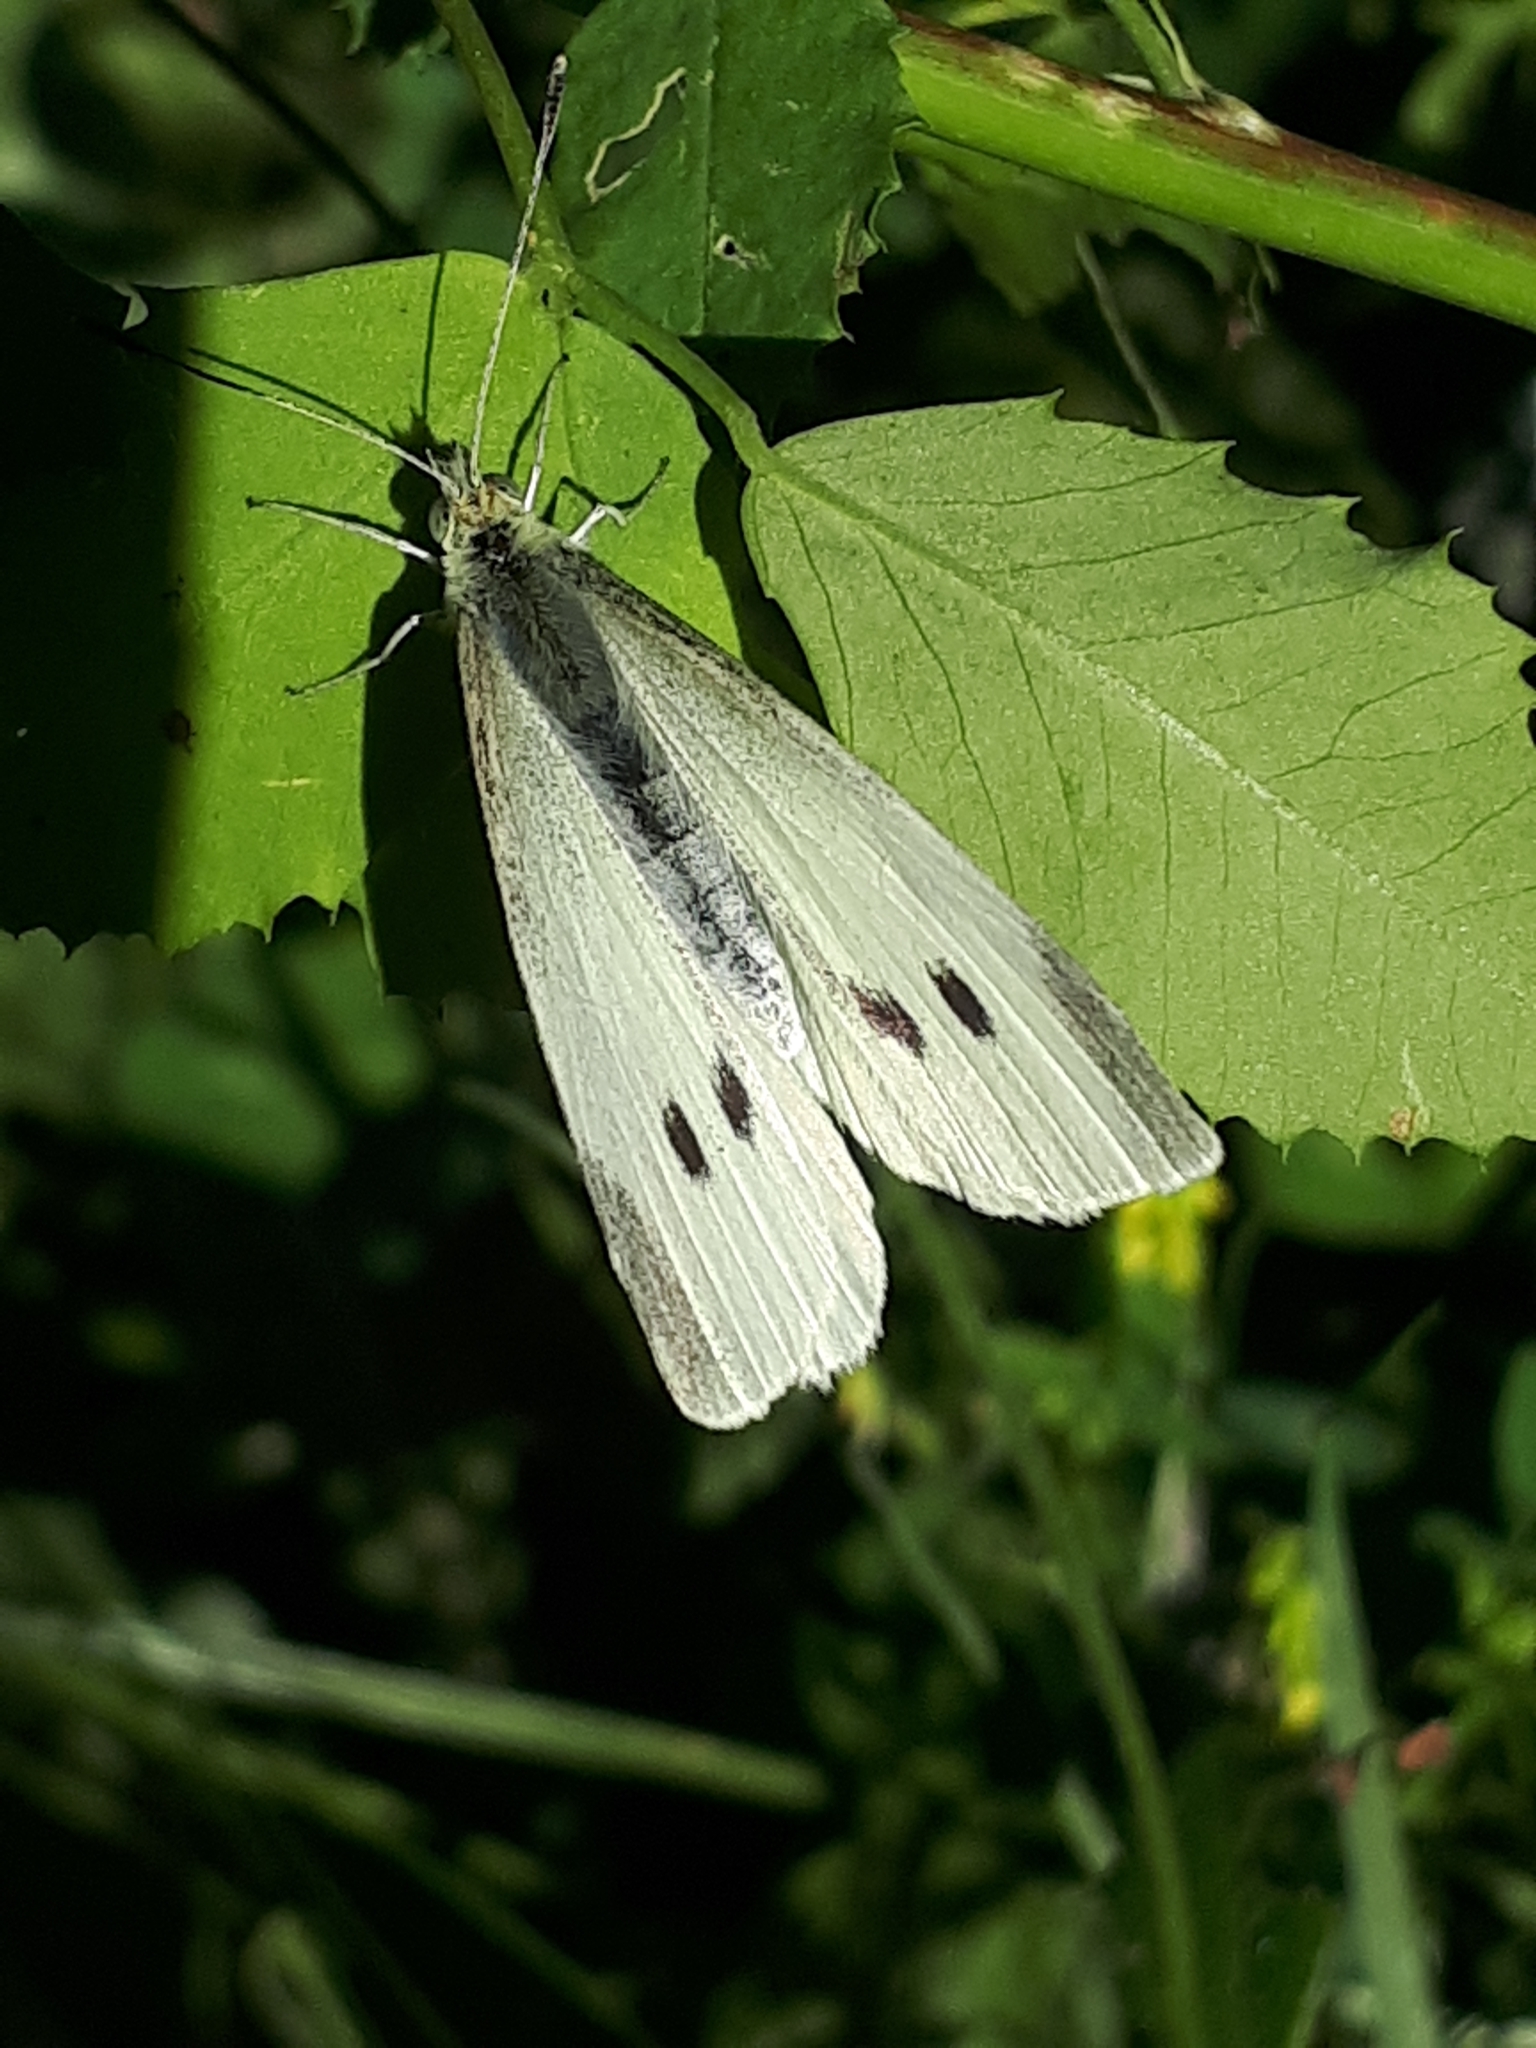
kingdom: Animalia
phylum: Arthropoda
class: Insecta
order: Lepidoptera
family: Pieridae
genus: Pieris
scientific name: Pieris rapae
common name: Small white
